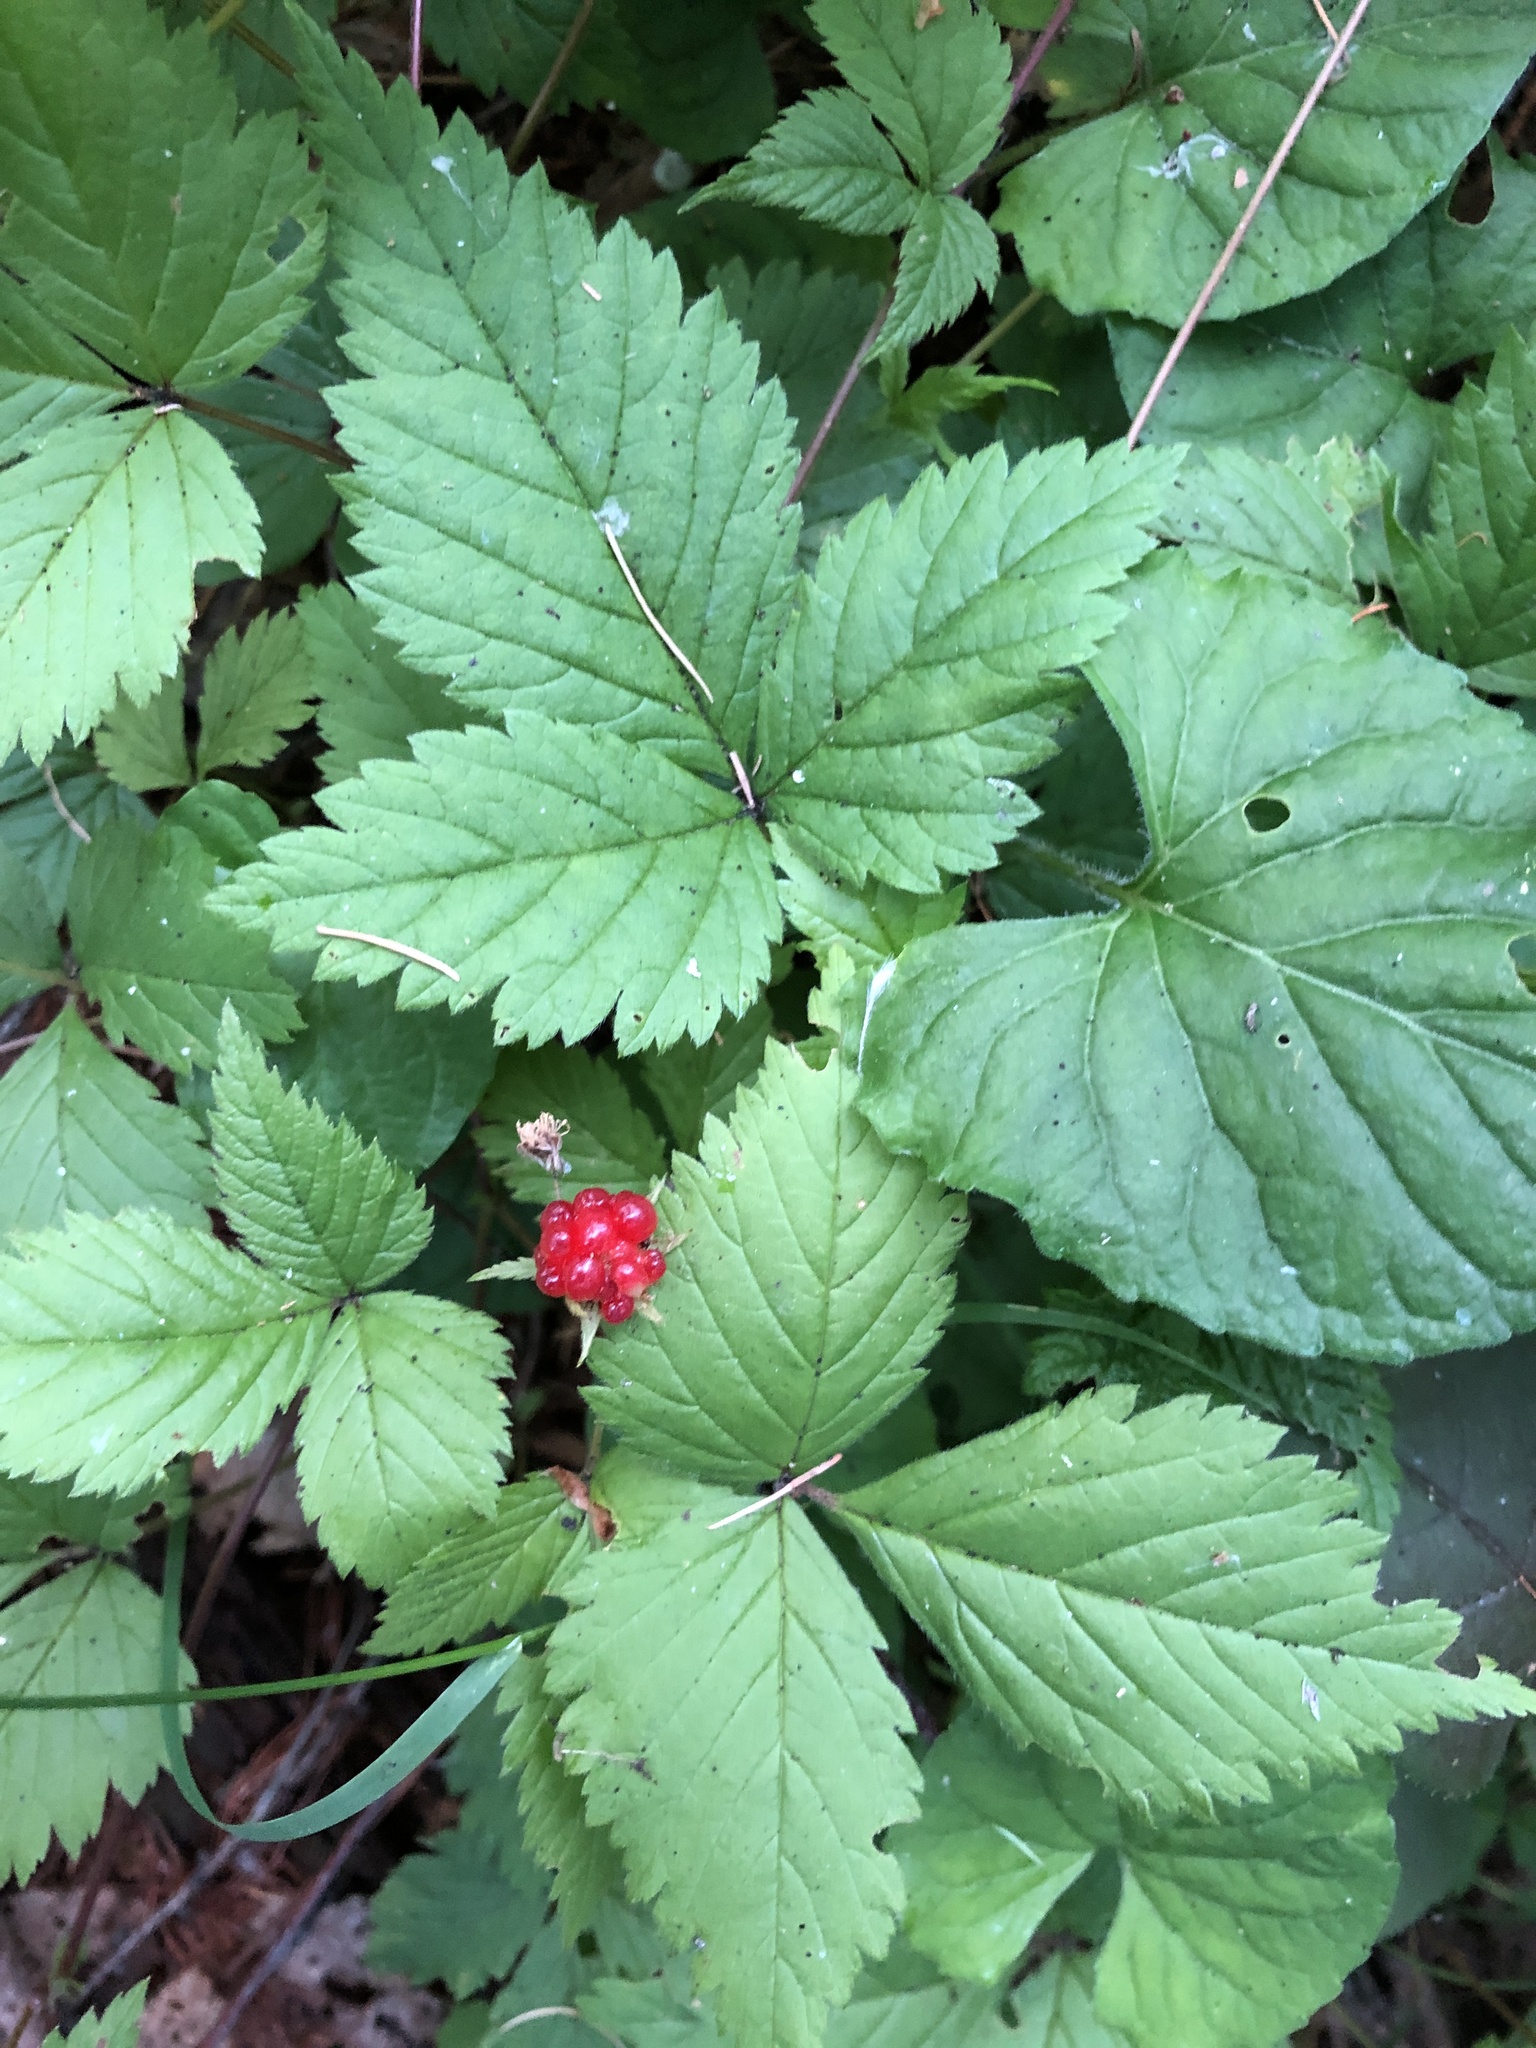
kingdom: Plantae
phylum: Tracheophyta
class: Magnoliopsida
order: Rosales
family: Rosaceae
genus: Rubus
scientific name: Rubus pubescens
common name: Dwarf raspberry
